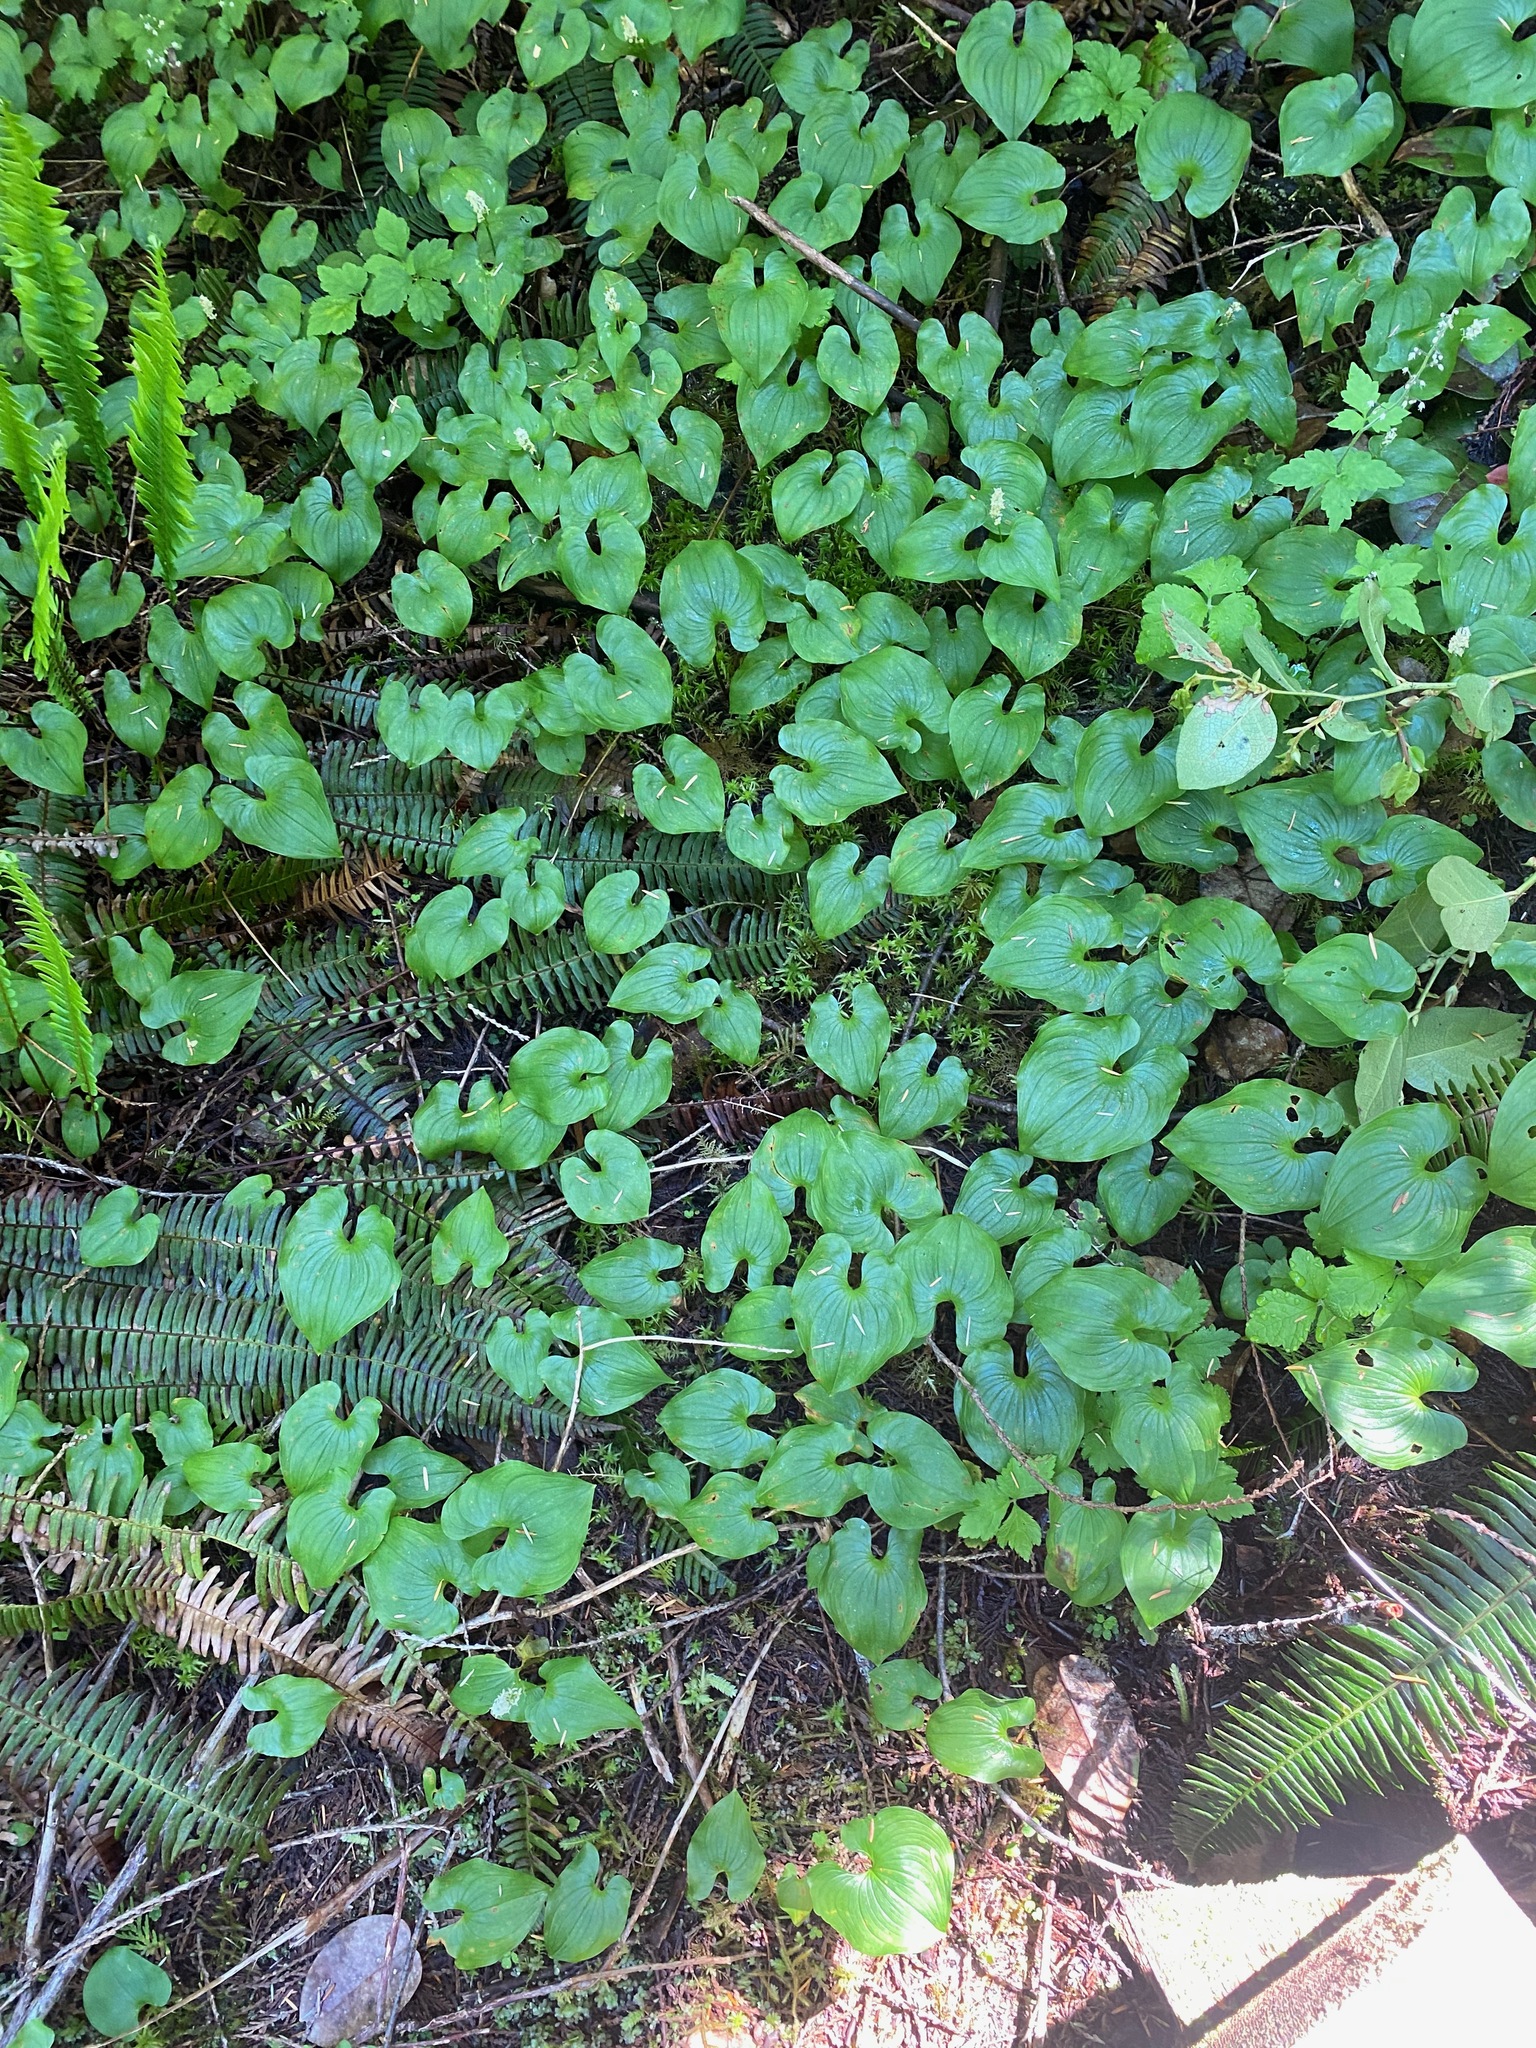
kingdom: Plantae
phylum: Tracheophyta
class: Liliopsida
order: Asparagales
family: Asparagaceae
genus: Maianthemum
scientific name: Maianthemum dilatatum
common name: False lily-of-the-valley
